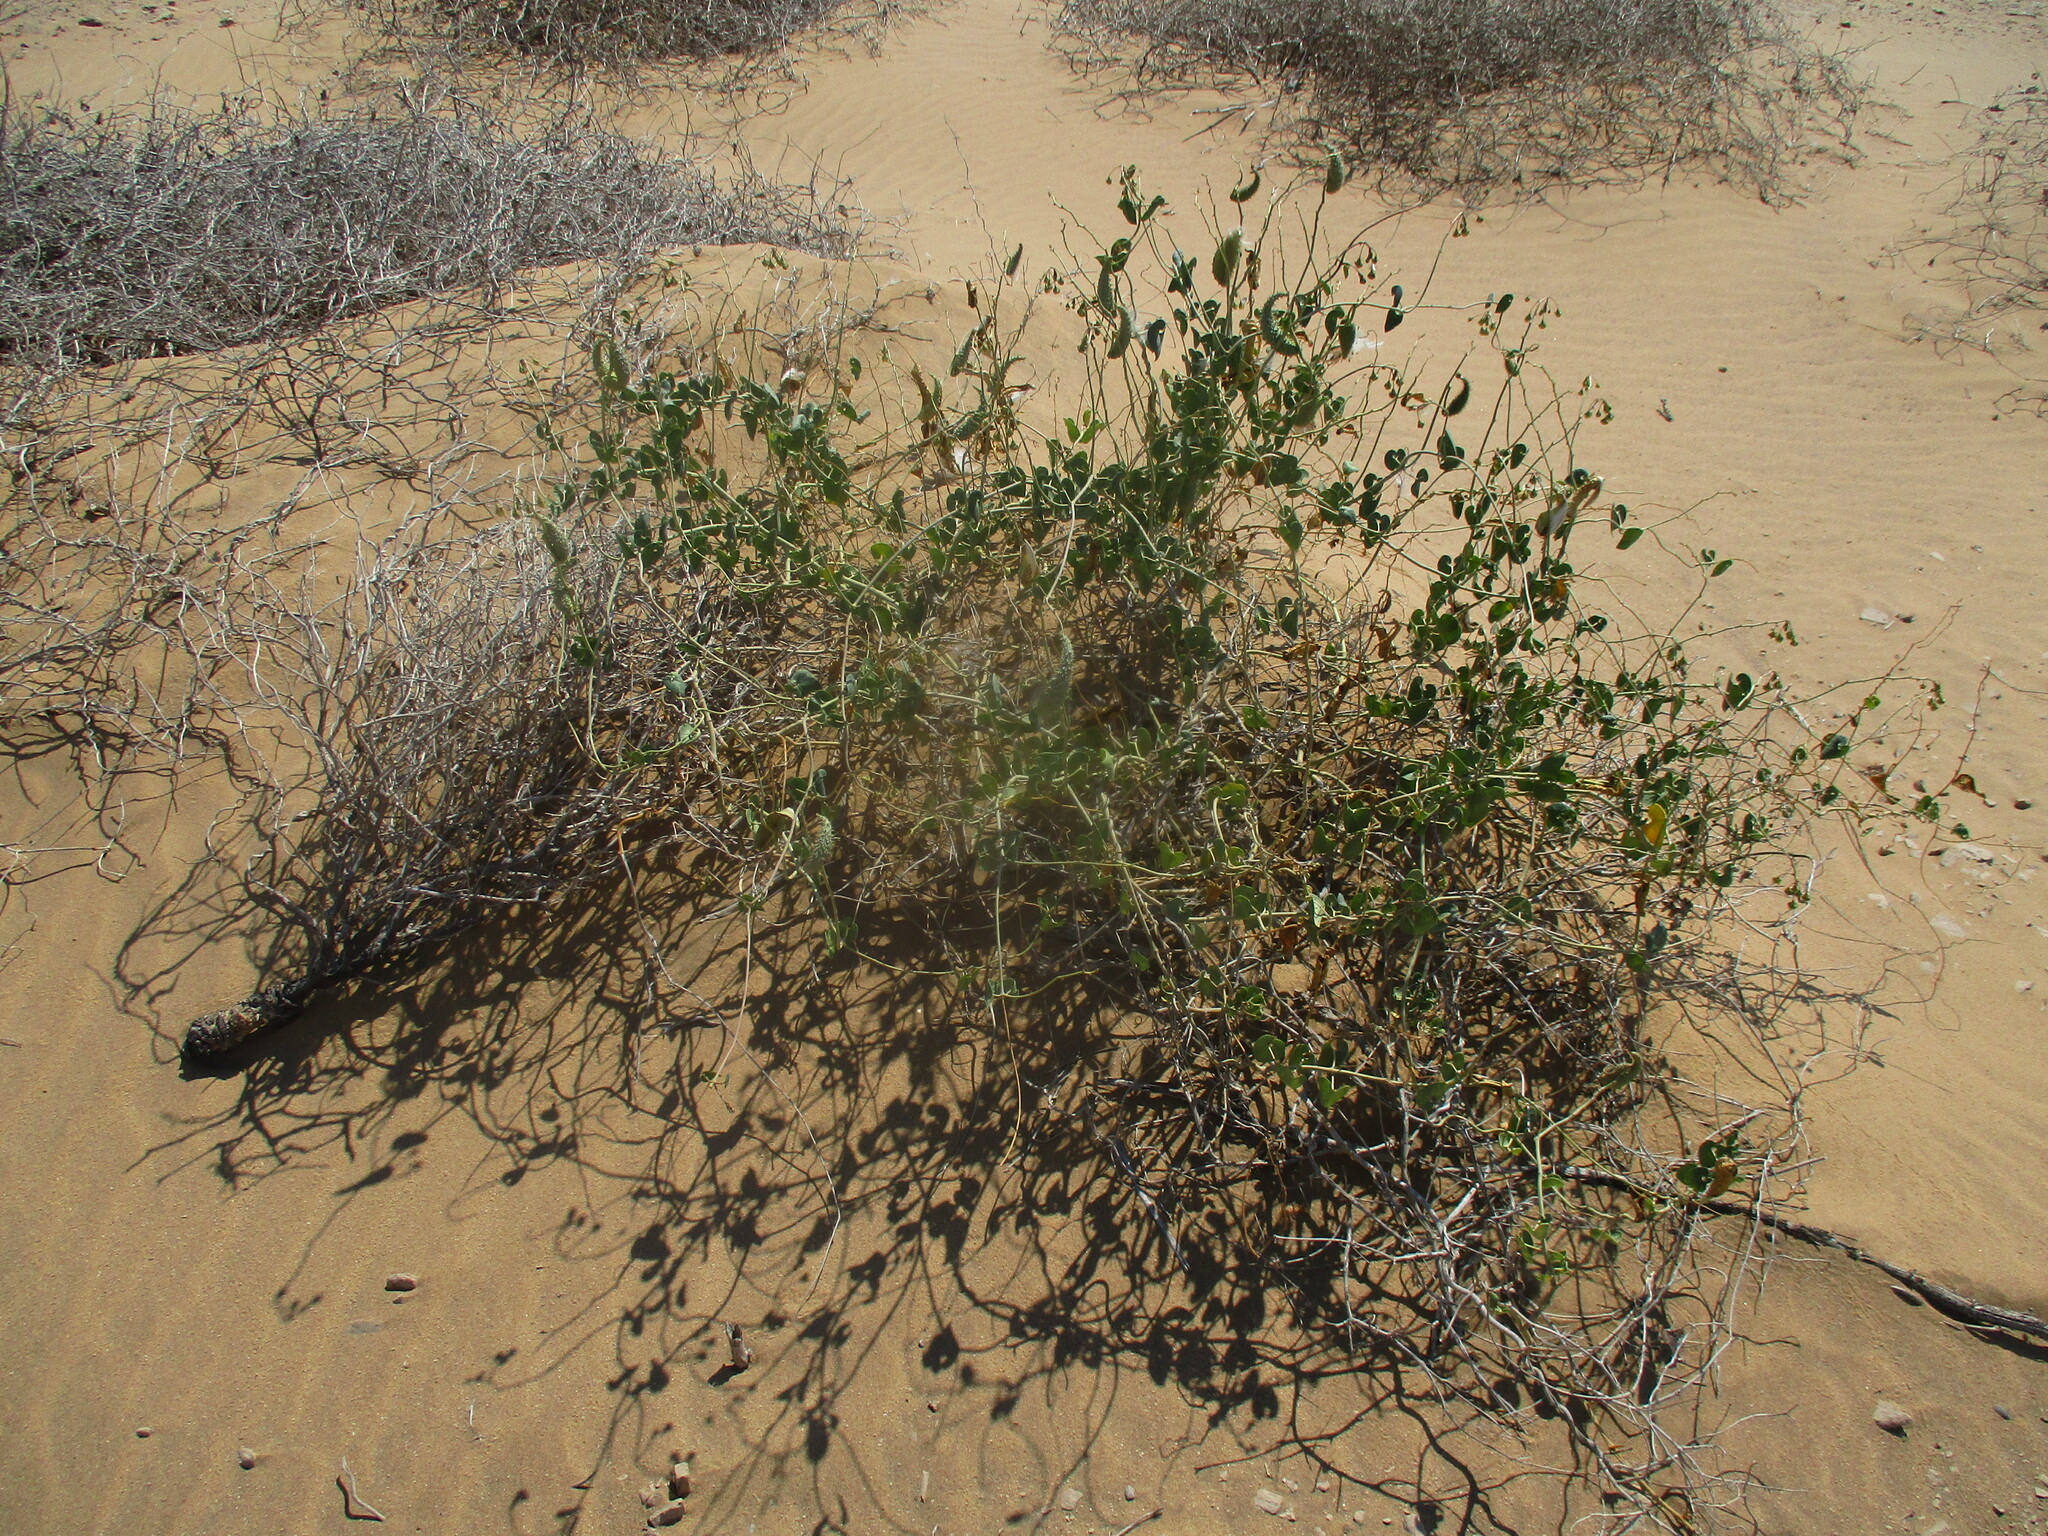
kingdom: Plantae
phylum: Tracheophyta
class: Magnoliopsida
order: Gentianales
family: Apocynaceae
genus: Pergularia
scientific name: Pergularia daemia
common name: Trellis-vine
